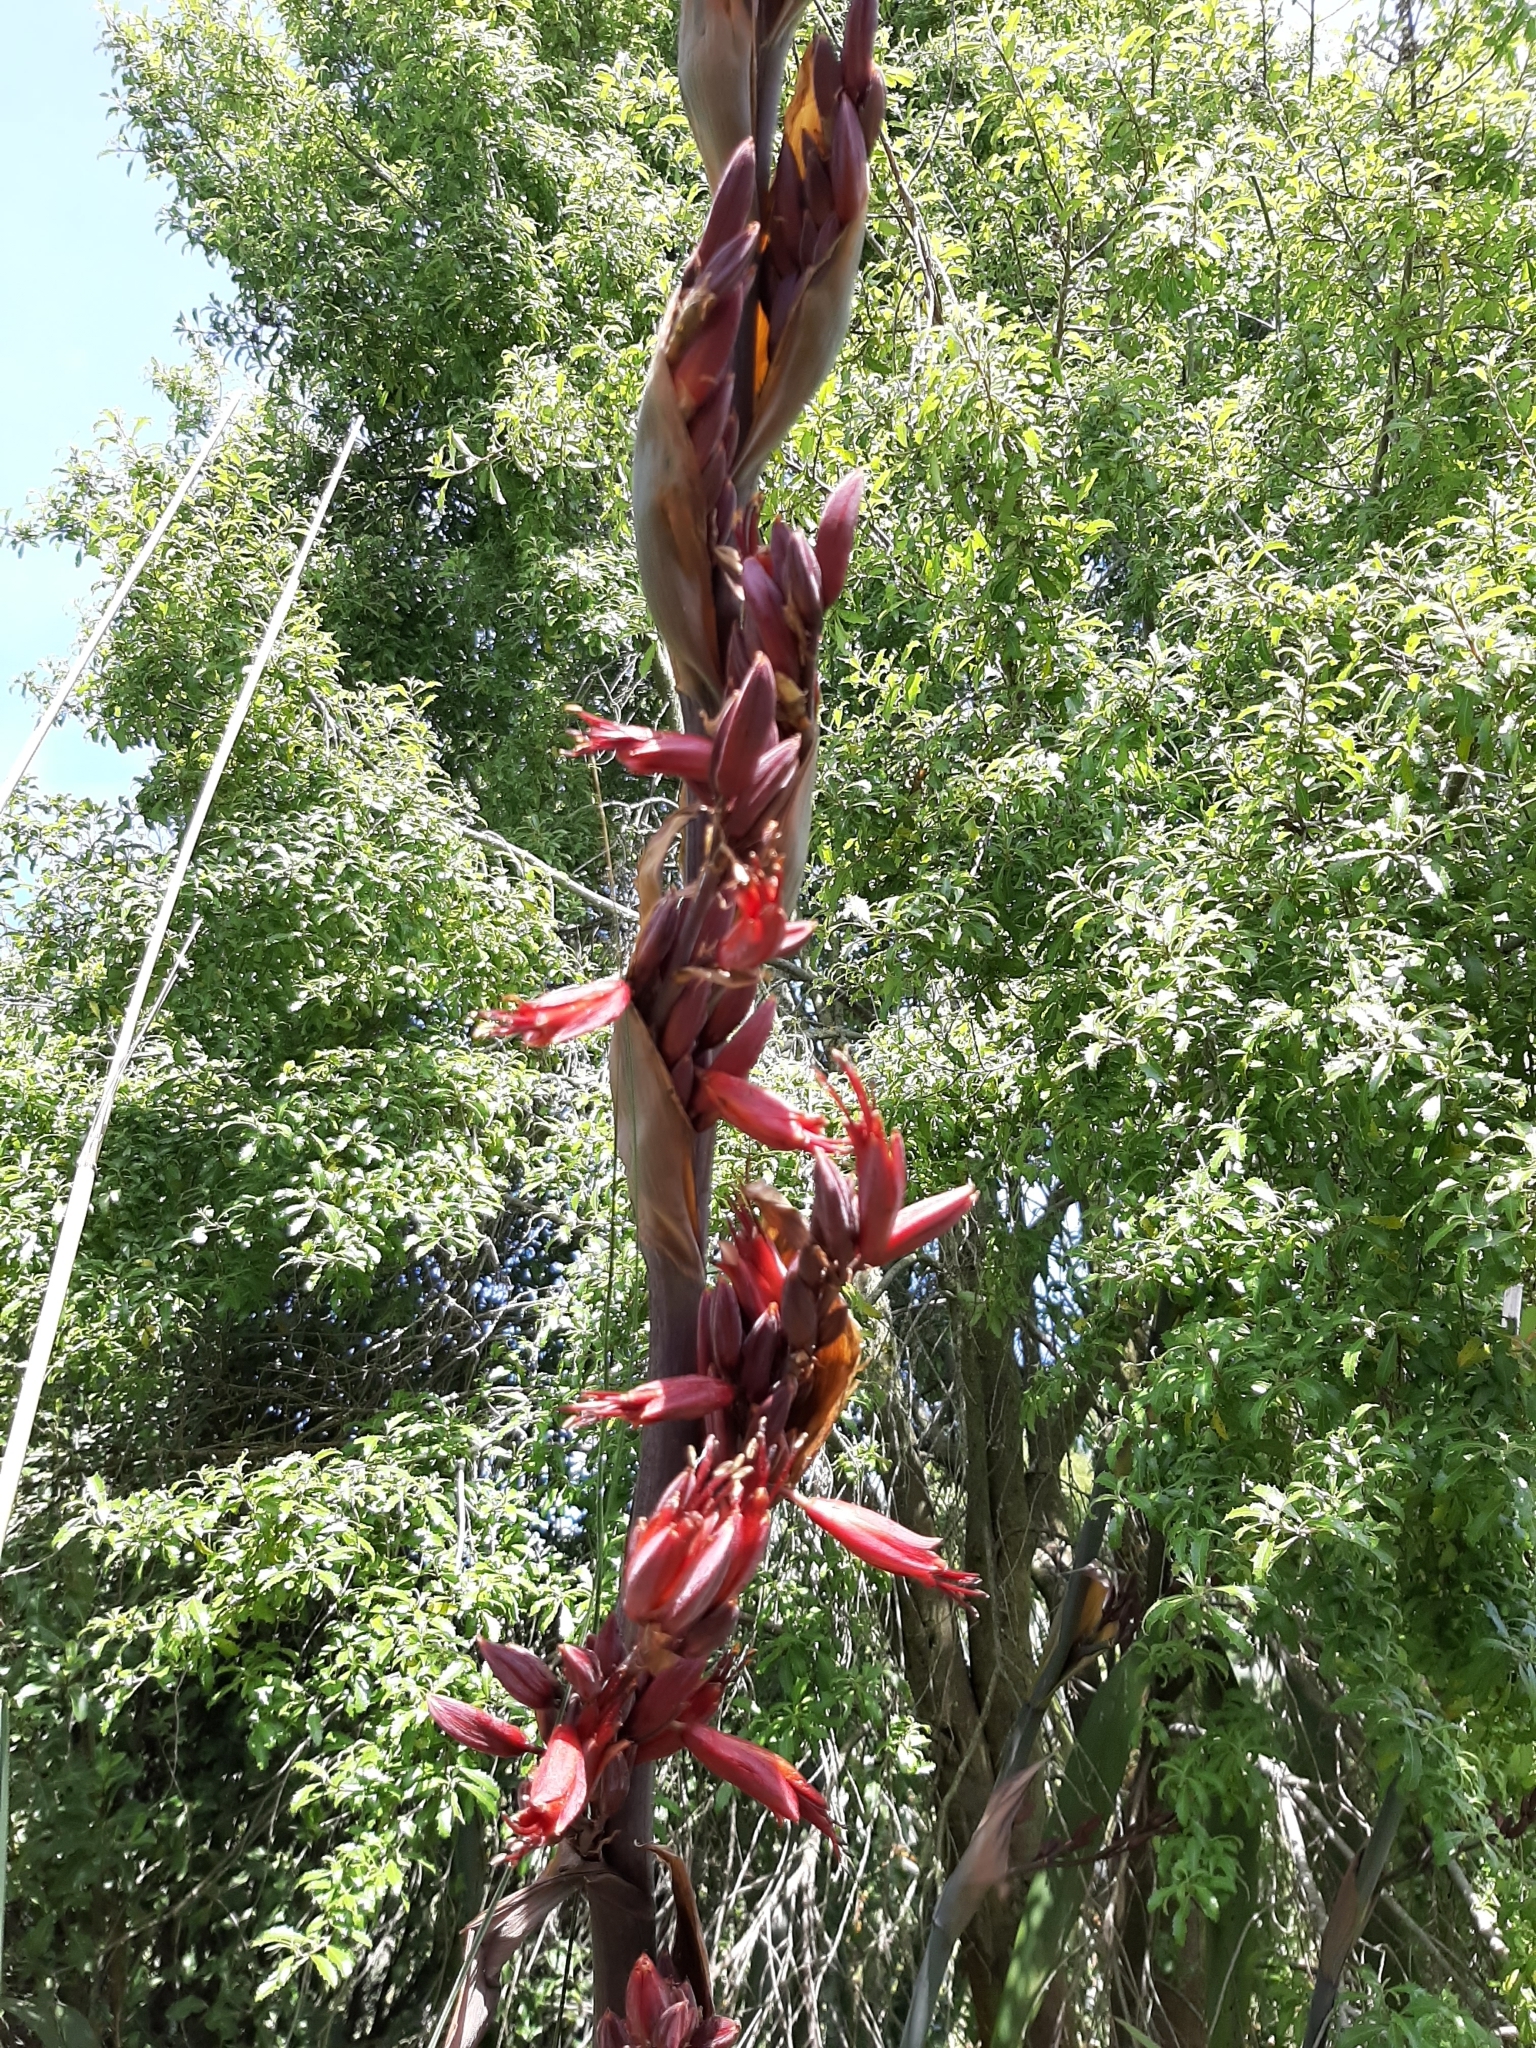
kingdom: Plantae
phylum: Tracheophyta
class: Liliopsida
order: Asparagales
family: Asphodelaceae
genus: Phormium
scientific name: Phormium tenax
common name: New zealand flax
